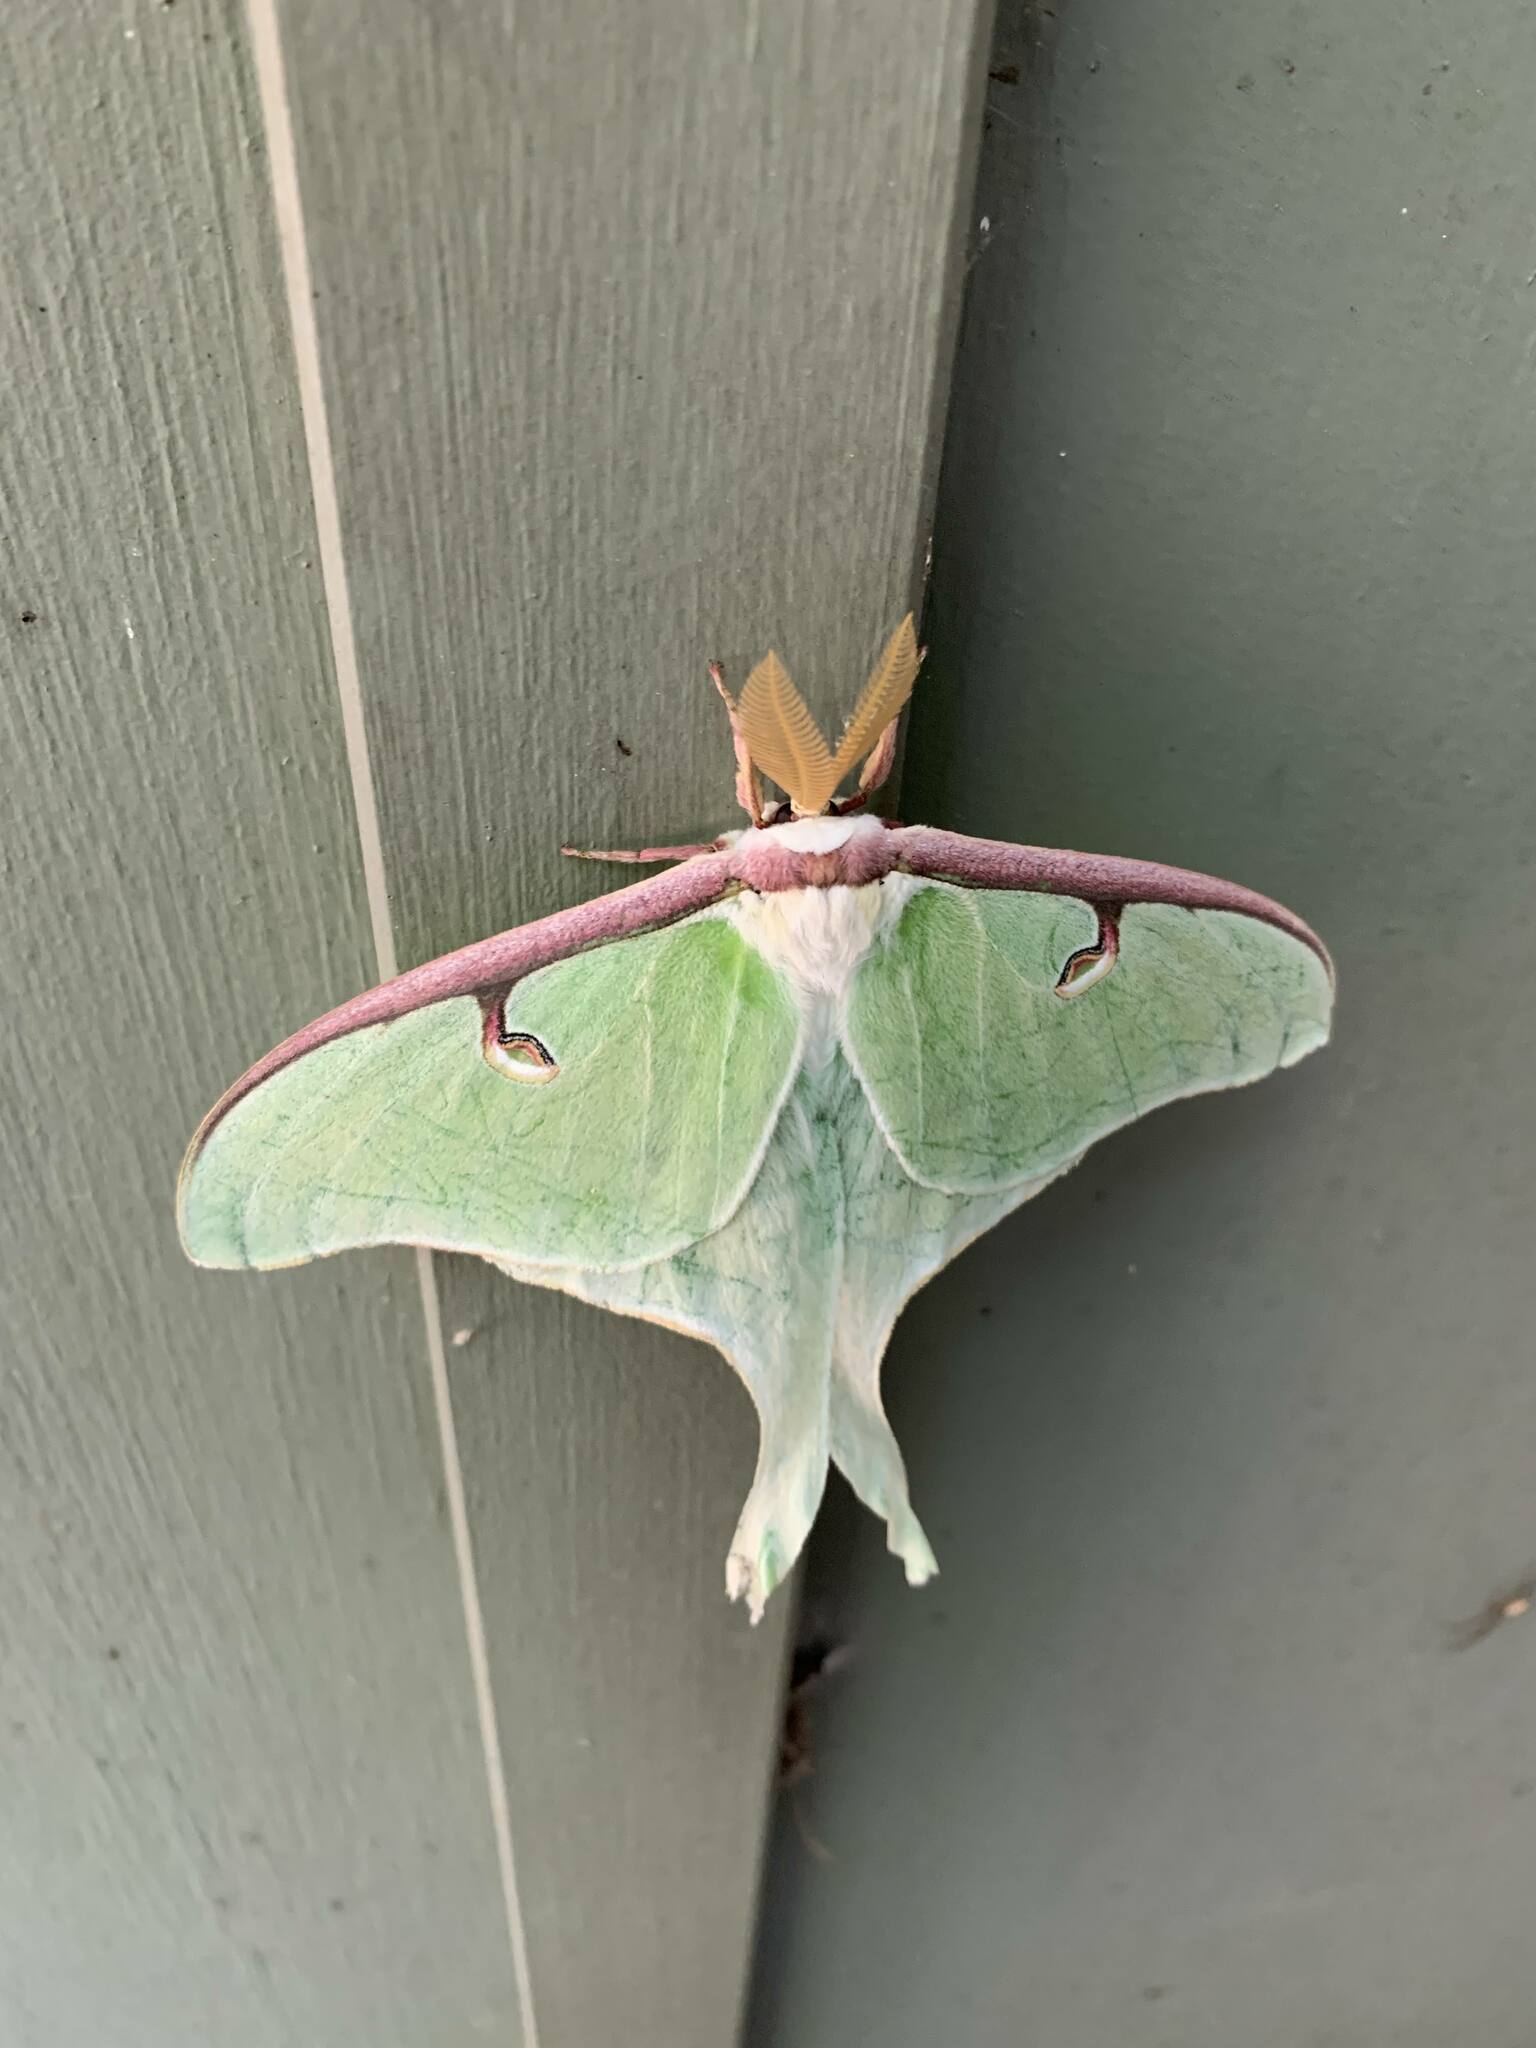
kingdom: Animalia
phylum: Arthropoda
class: Insecta
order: Lepidoptera
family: Saturniidae
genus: Actias
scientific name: Actias luna
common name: Luna moth
